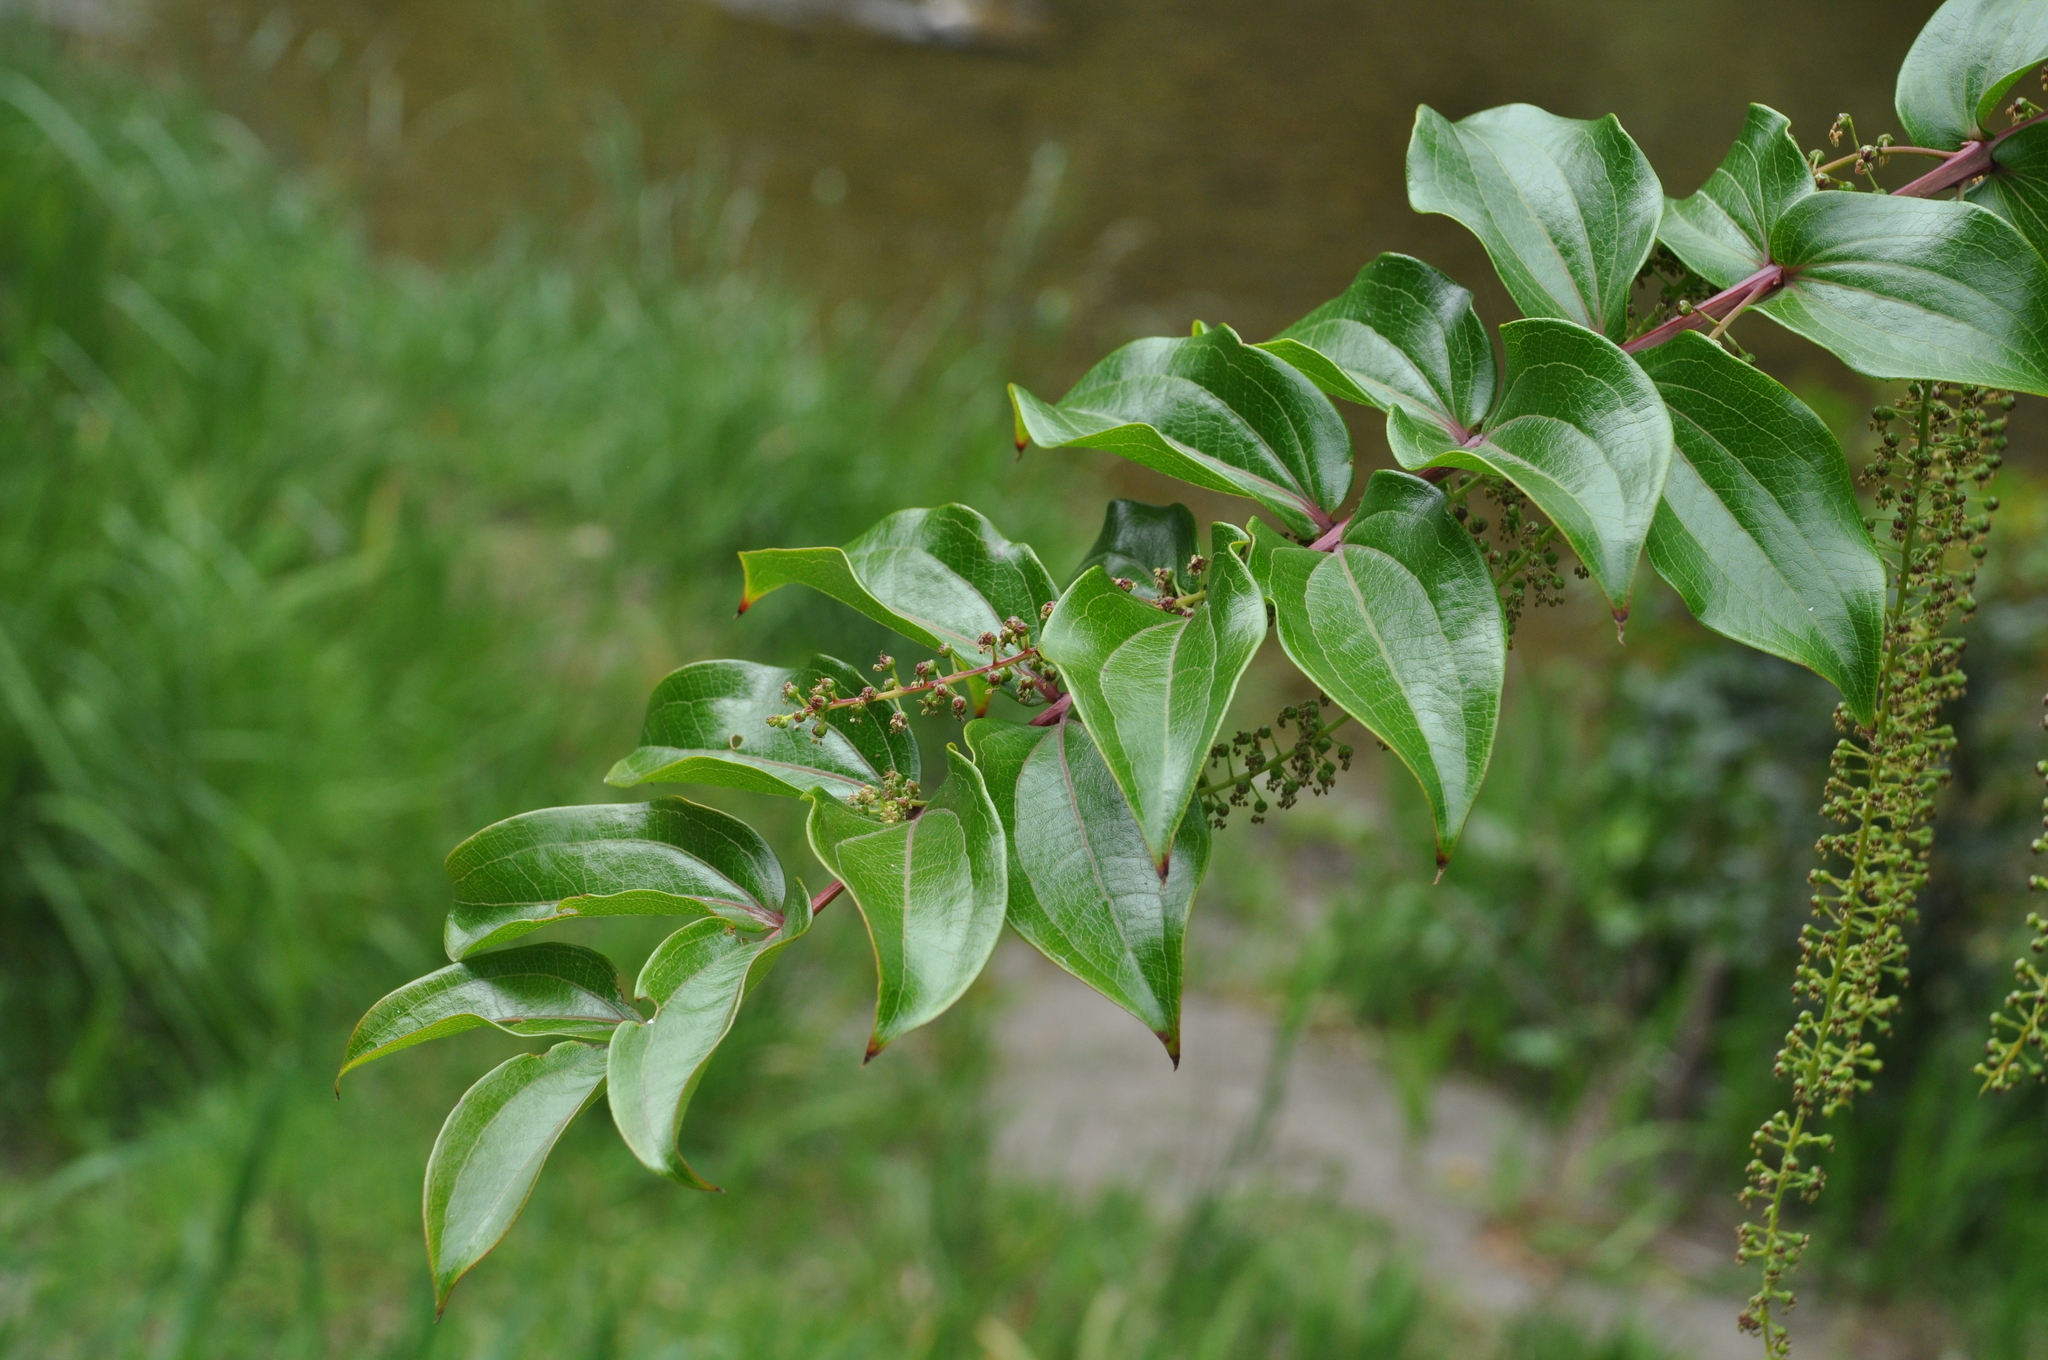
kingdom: Plantae
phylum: Tracheophyta
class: Magnoliopsida
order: Cucurbitales
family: Coriariaceae
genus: Coriaria
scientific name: Coriaria arborea
